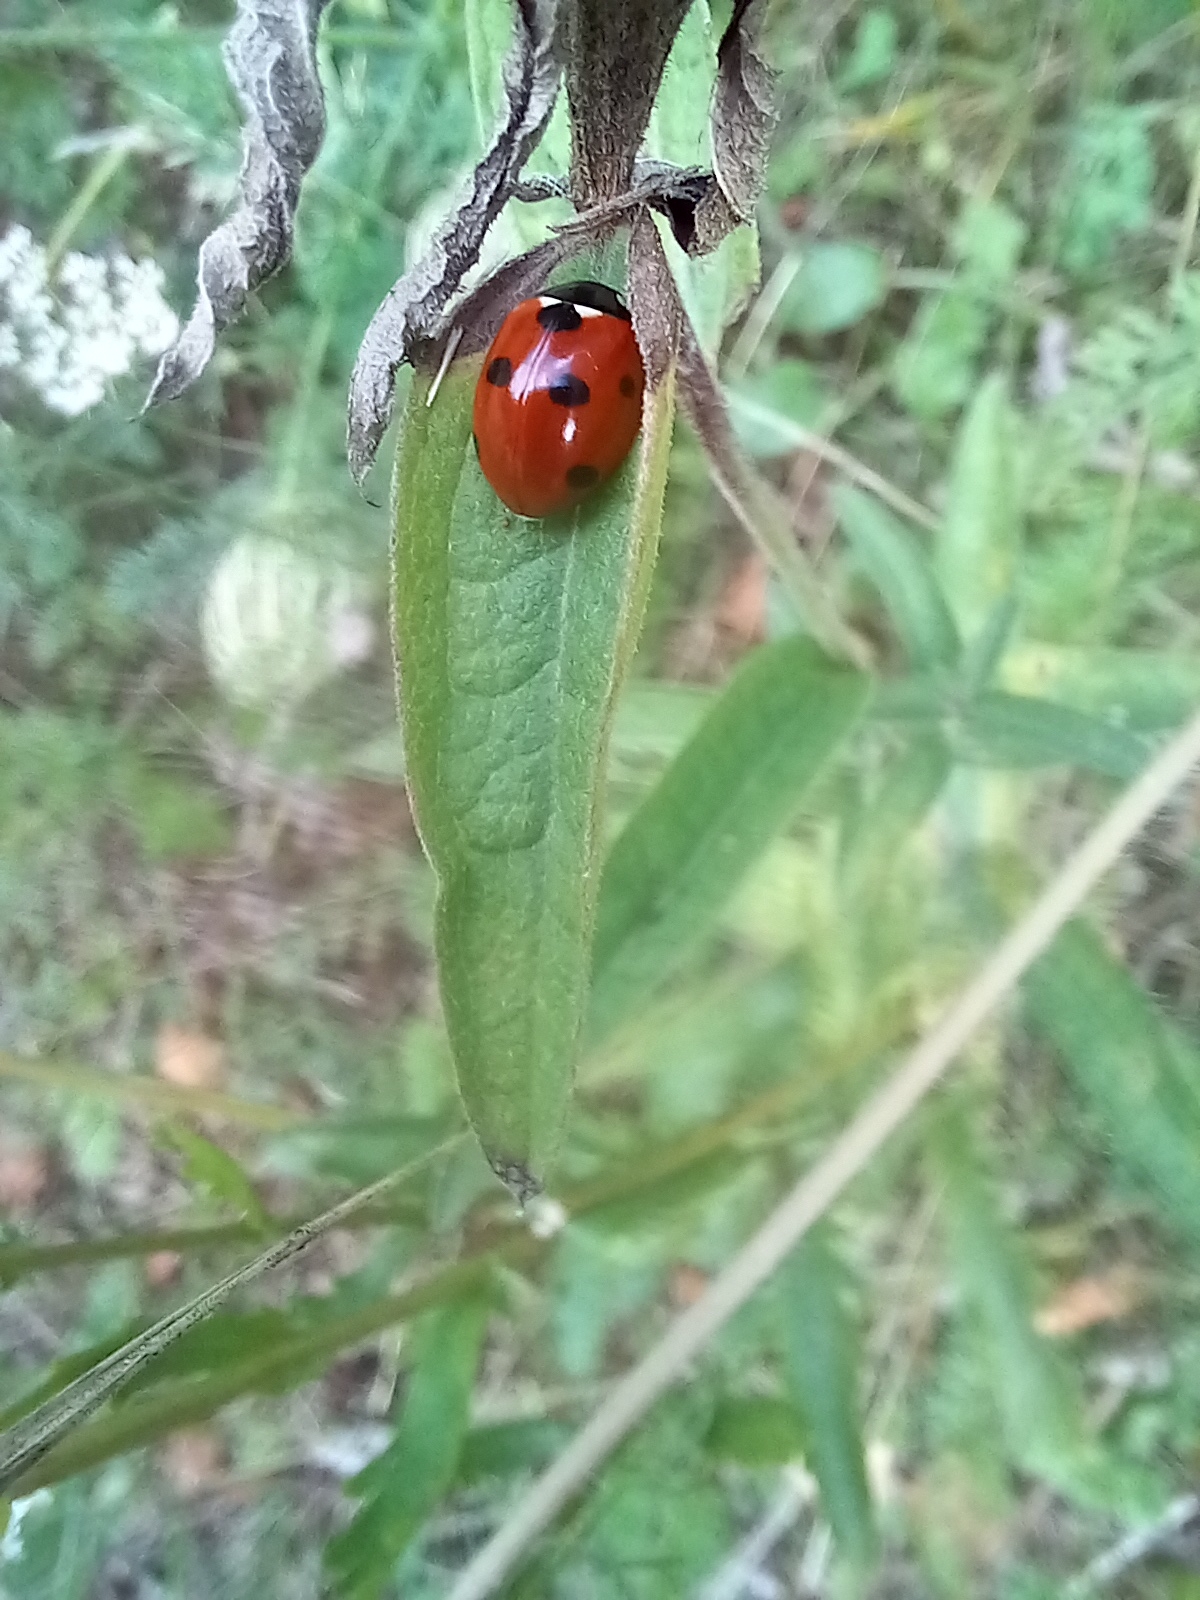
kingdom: Animalia
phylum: Arthropoda
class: Insecta
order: Coleoptera
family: Coccinellidae
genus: Coccinella
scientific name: Coccinella septempunctata
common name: Sevenspotted lady beetle
